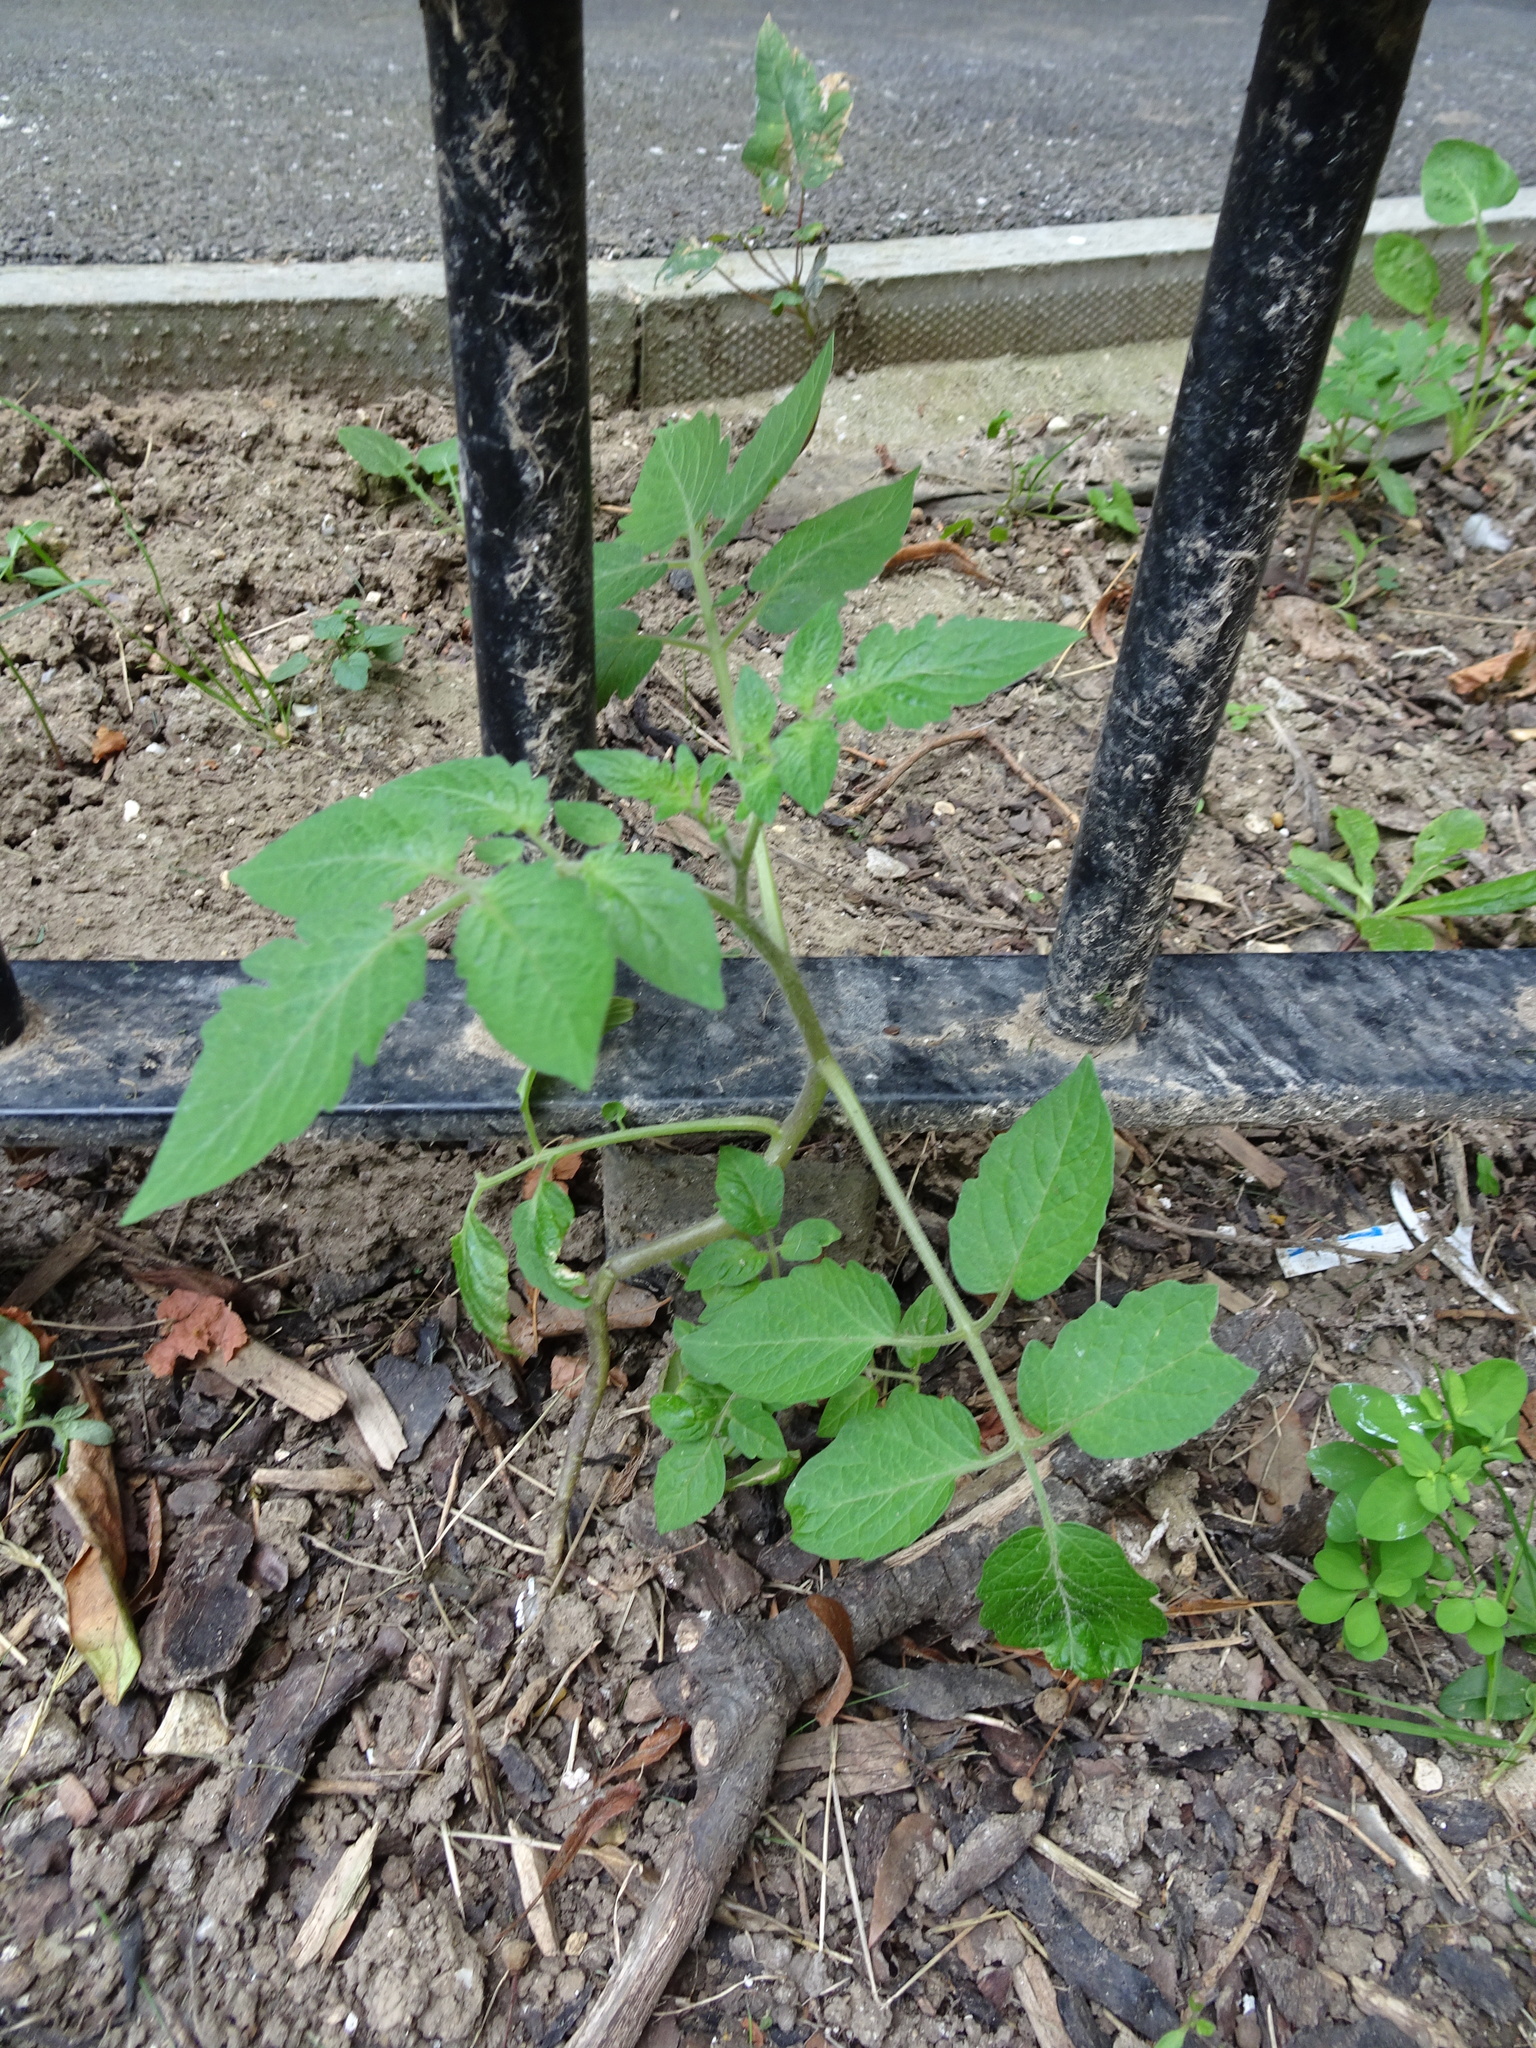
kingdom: Plantae
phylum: Tracheophyta
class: Magnoliopsida
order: Solanales
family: Solanaceae
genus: Solanum
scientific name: Solanum lycopersicum
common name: Garden tomato
